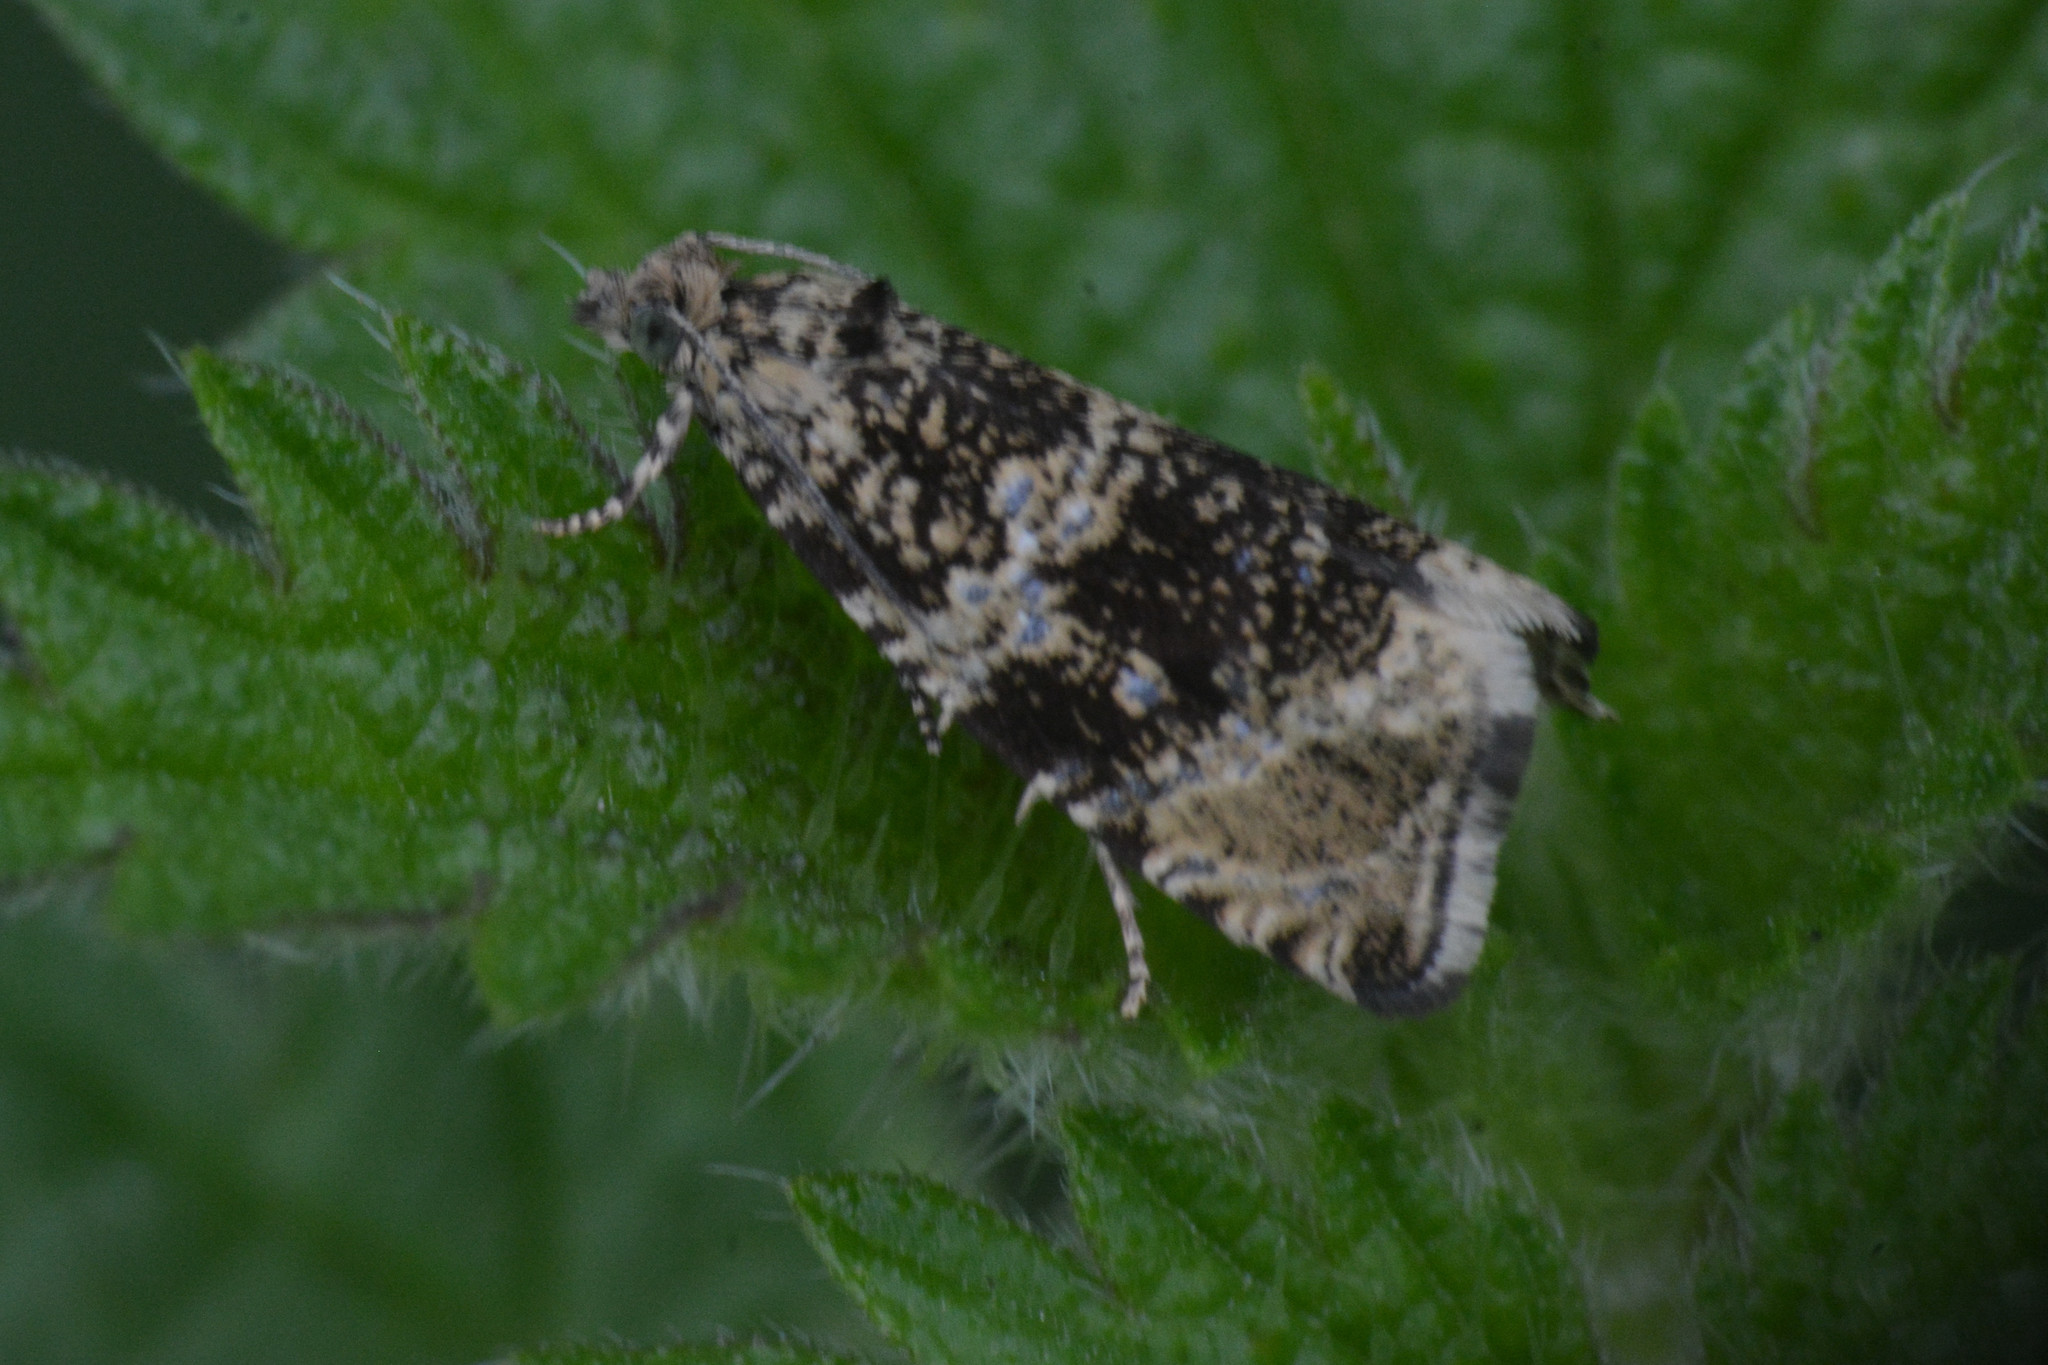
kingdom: Animalia
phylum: Arthropoda
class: Insecta
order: Lepidoptera
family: Tortricidae
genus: Syricoris
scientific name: Syricoris lacunana
